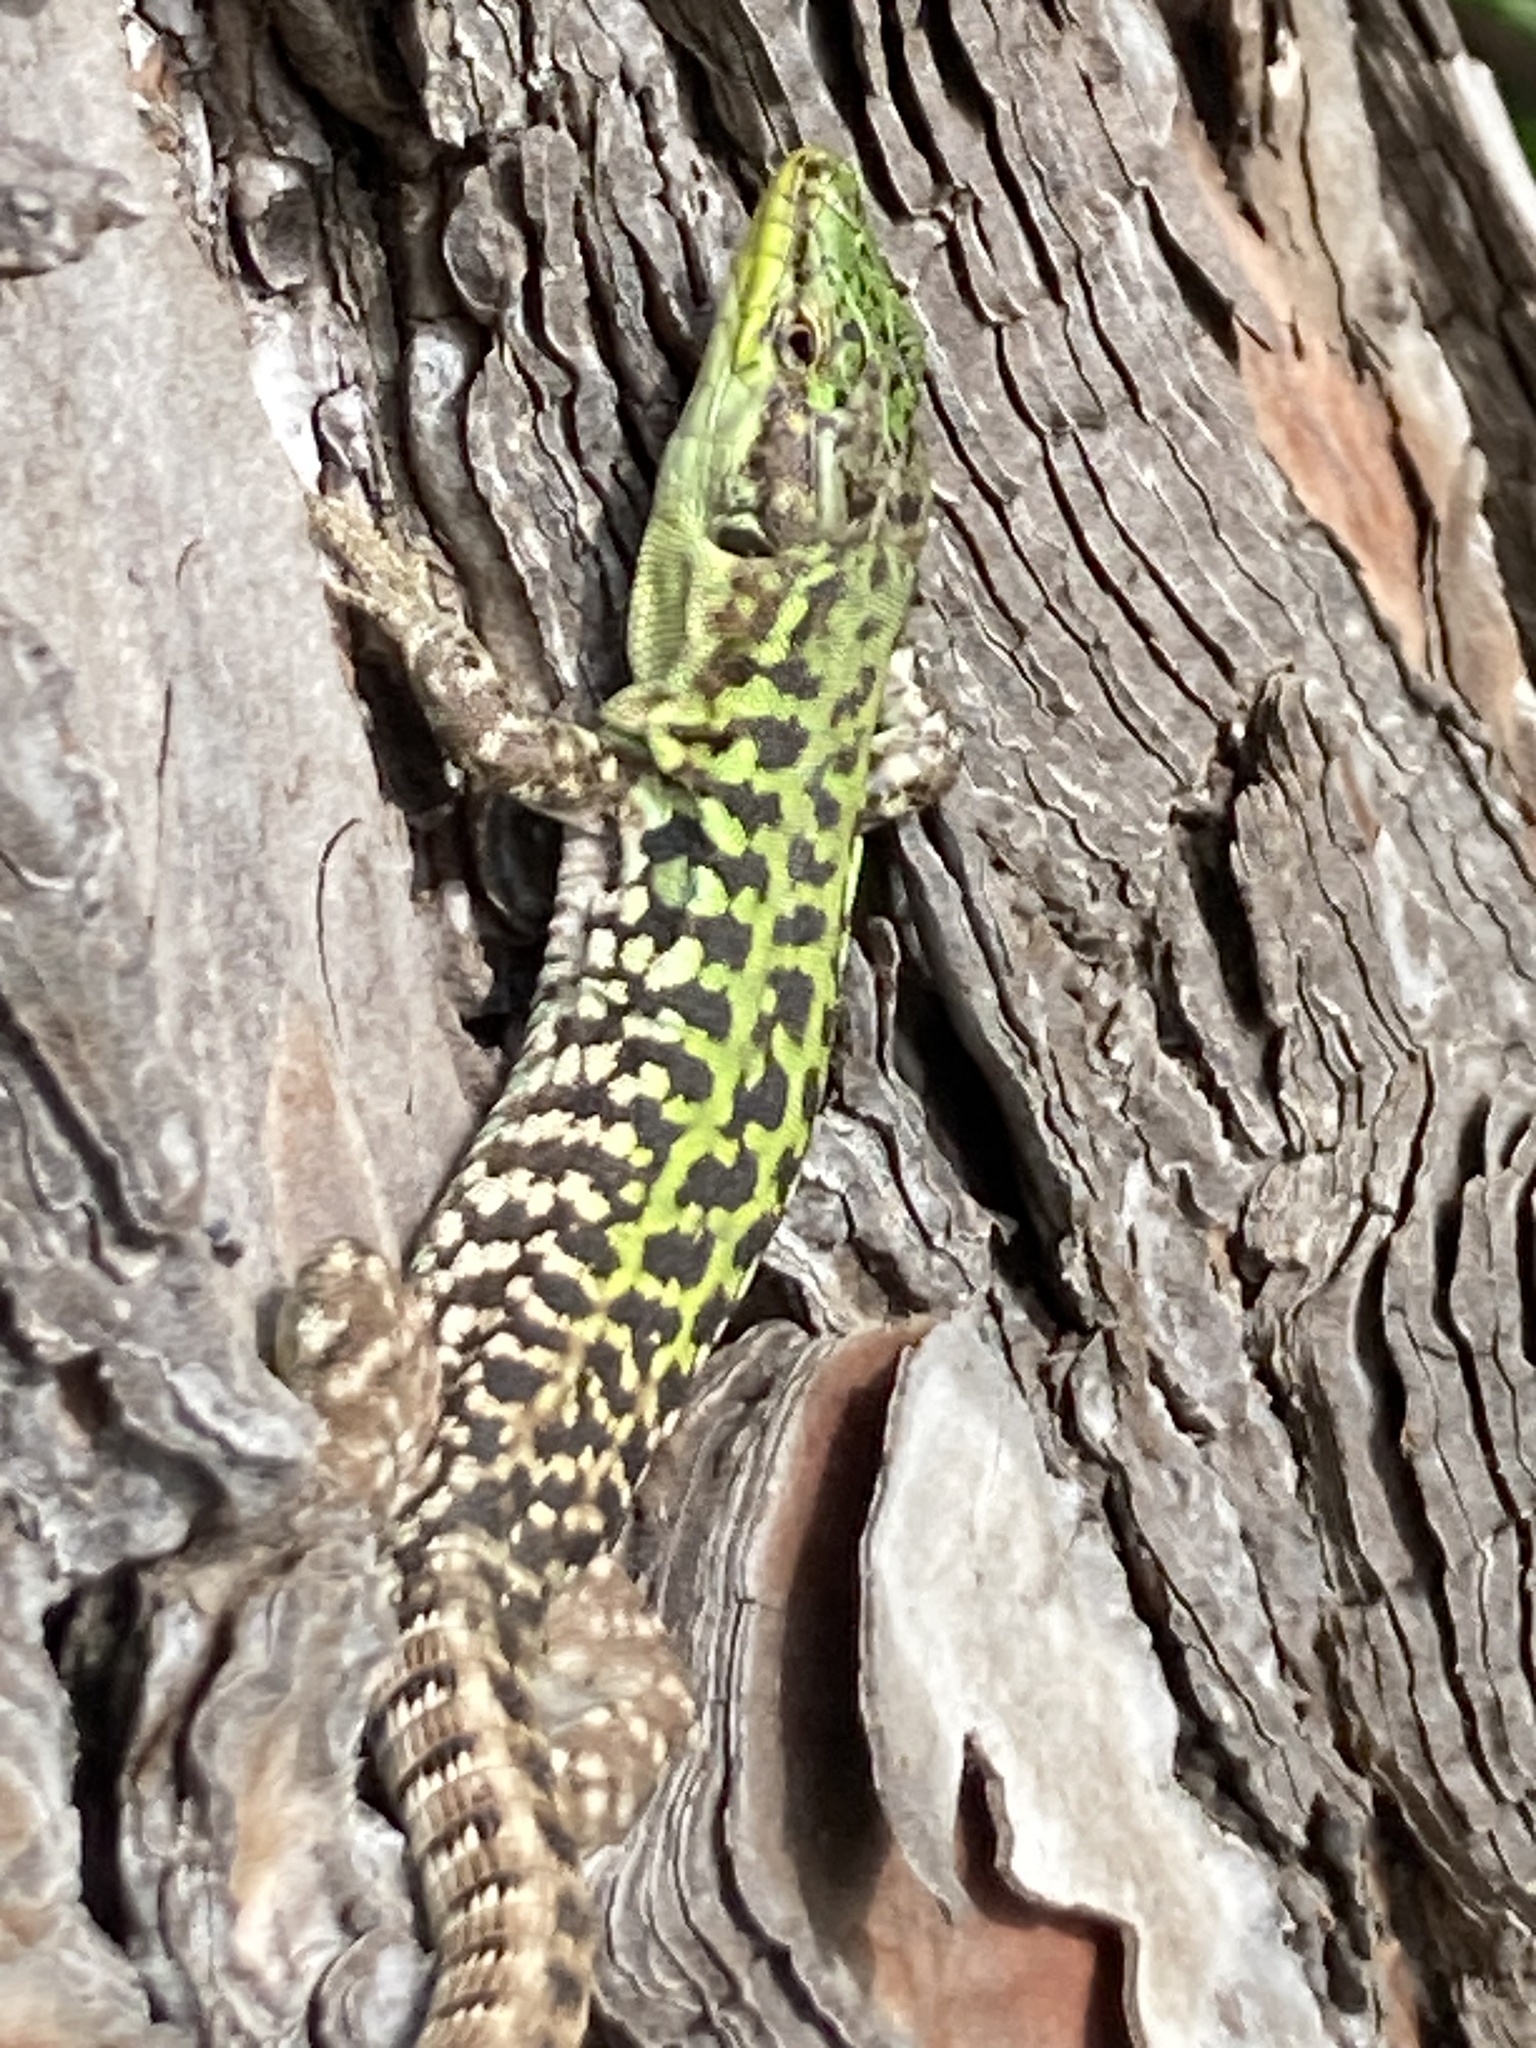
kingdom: Animalia
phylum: Chordata
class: Squamata
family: Lacertidae
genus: Podarcis
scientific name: Podarcis siculus
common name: Italian wall lizard
